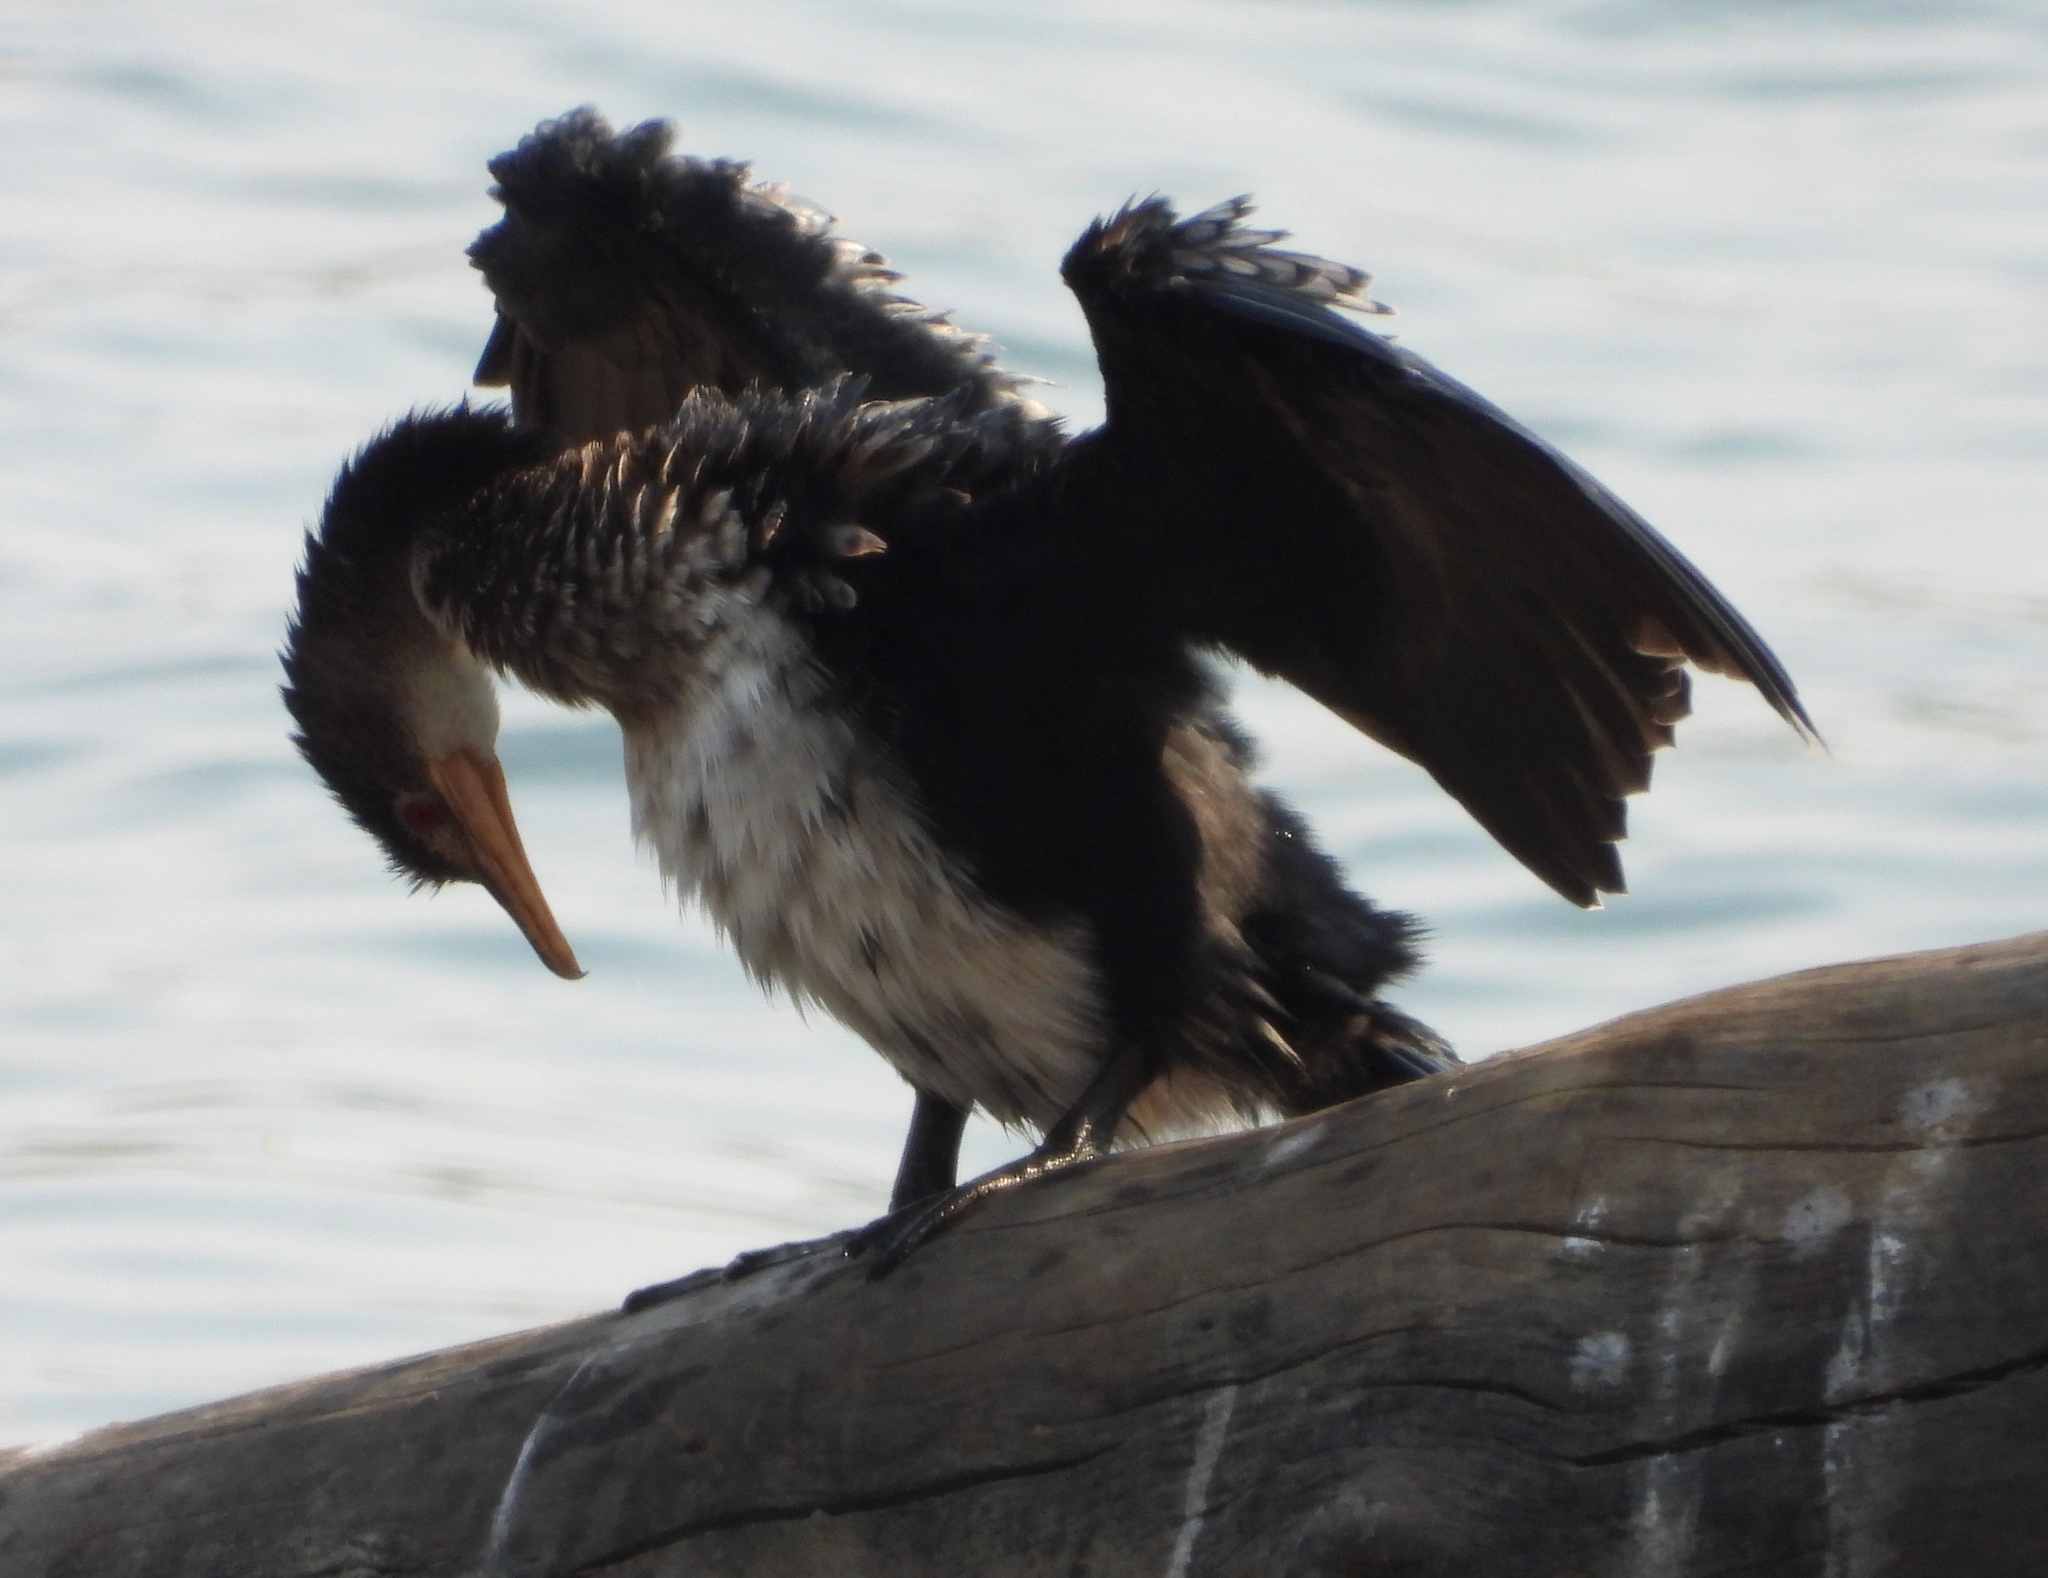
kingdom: Animalia
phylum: Chordata
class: Aves
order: Suliformes
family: Phalacrocoracidae
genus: Microcarbo
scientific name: Microcarbo africanus
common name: Long-tailed cormorant
